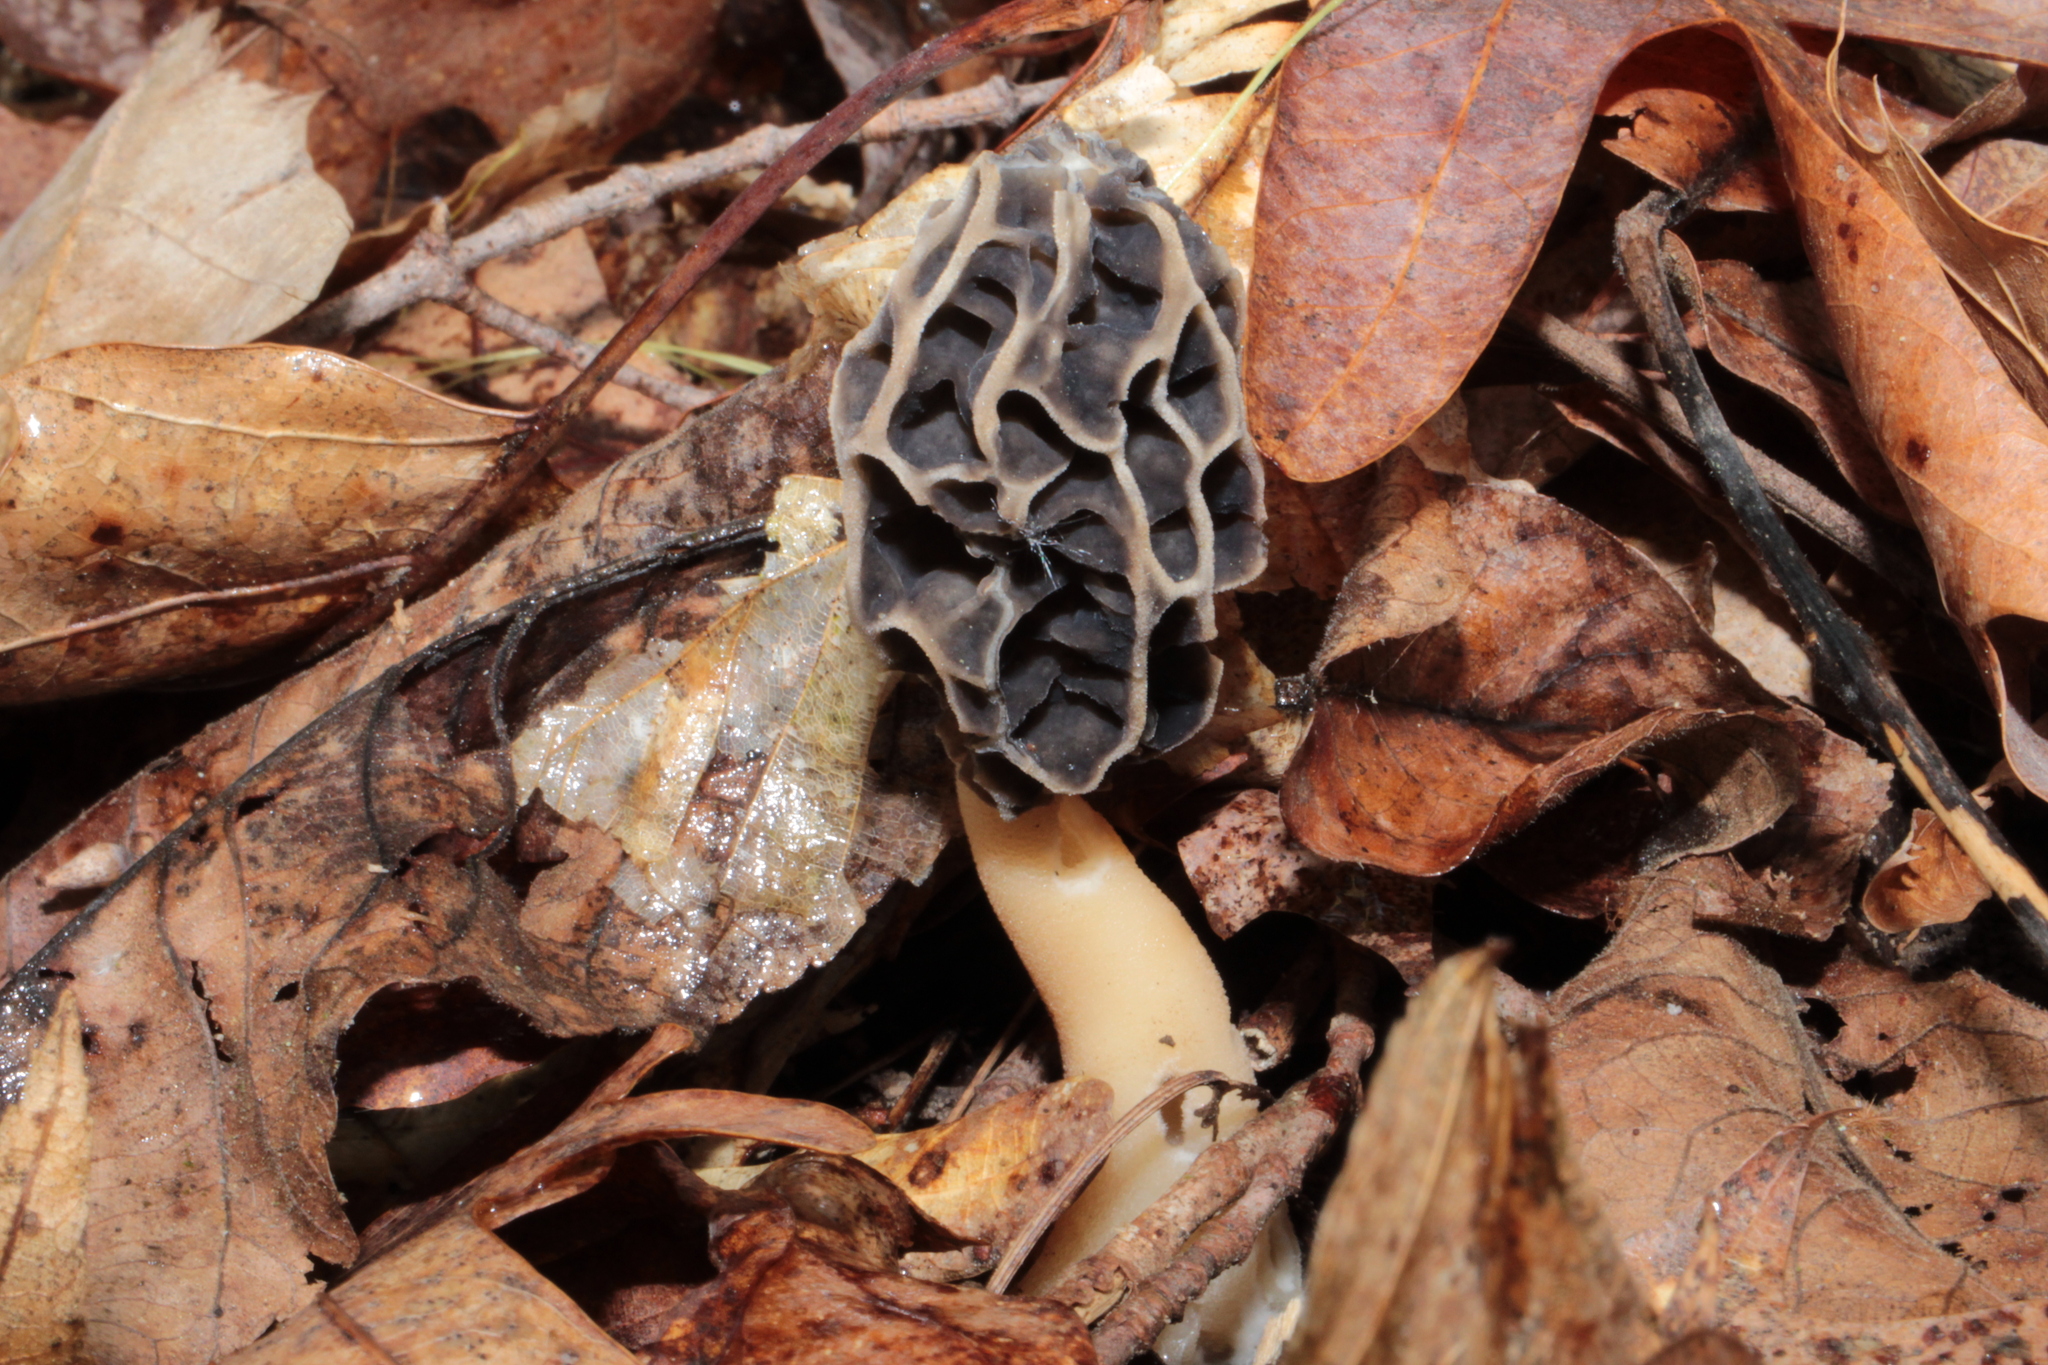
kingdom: Fungi
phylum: Ascomycota
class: Pezizomycetes
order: Pezizales
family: Morchellaceae
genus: Morchella
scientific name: Morchella sceptriformis
